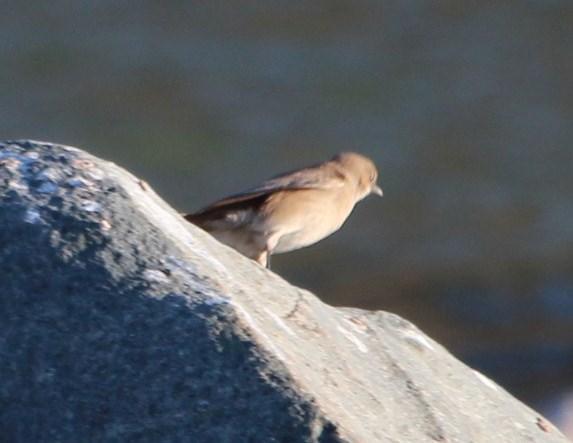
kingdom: Animalia
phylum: Chordata
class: Aves
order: Passeriformes
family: Muscicapidae
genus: Oenanthe
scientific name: Oenanthe familiaris
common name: Familiar chat
